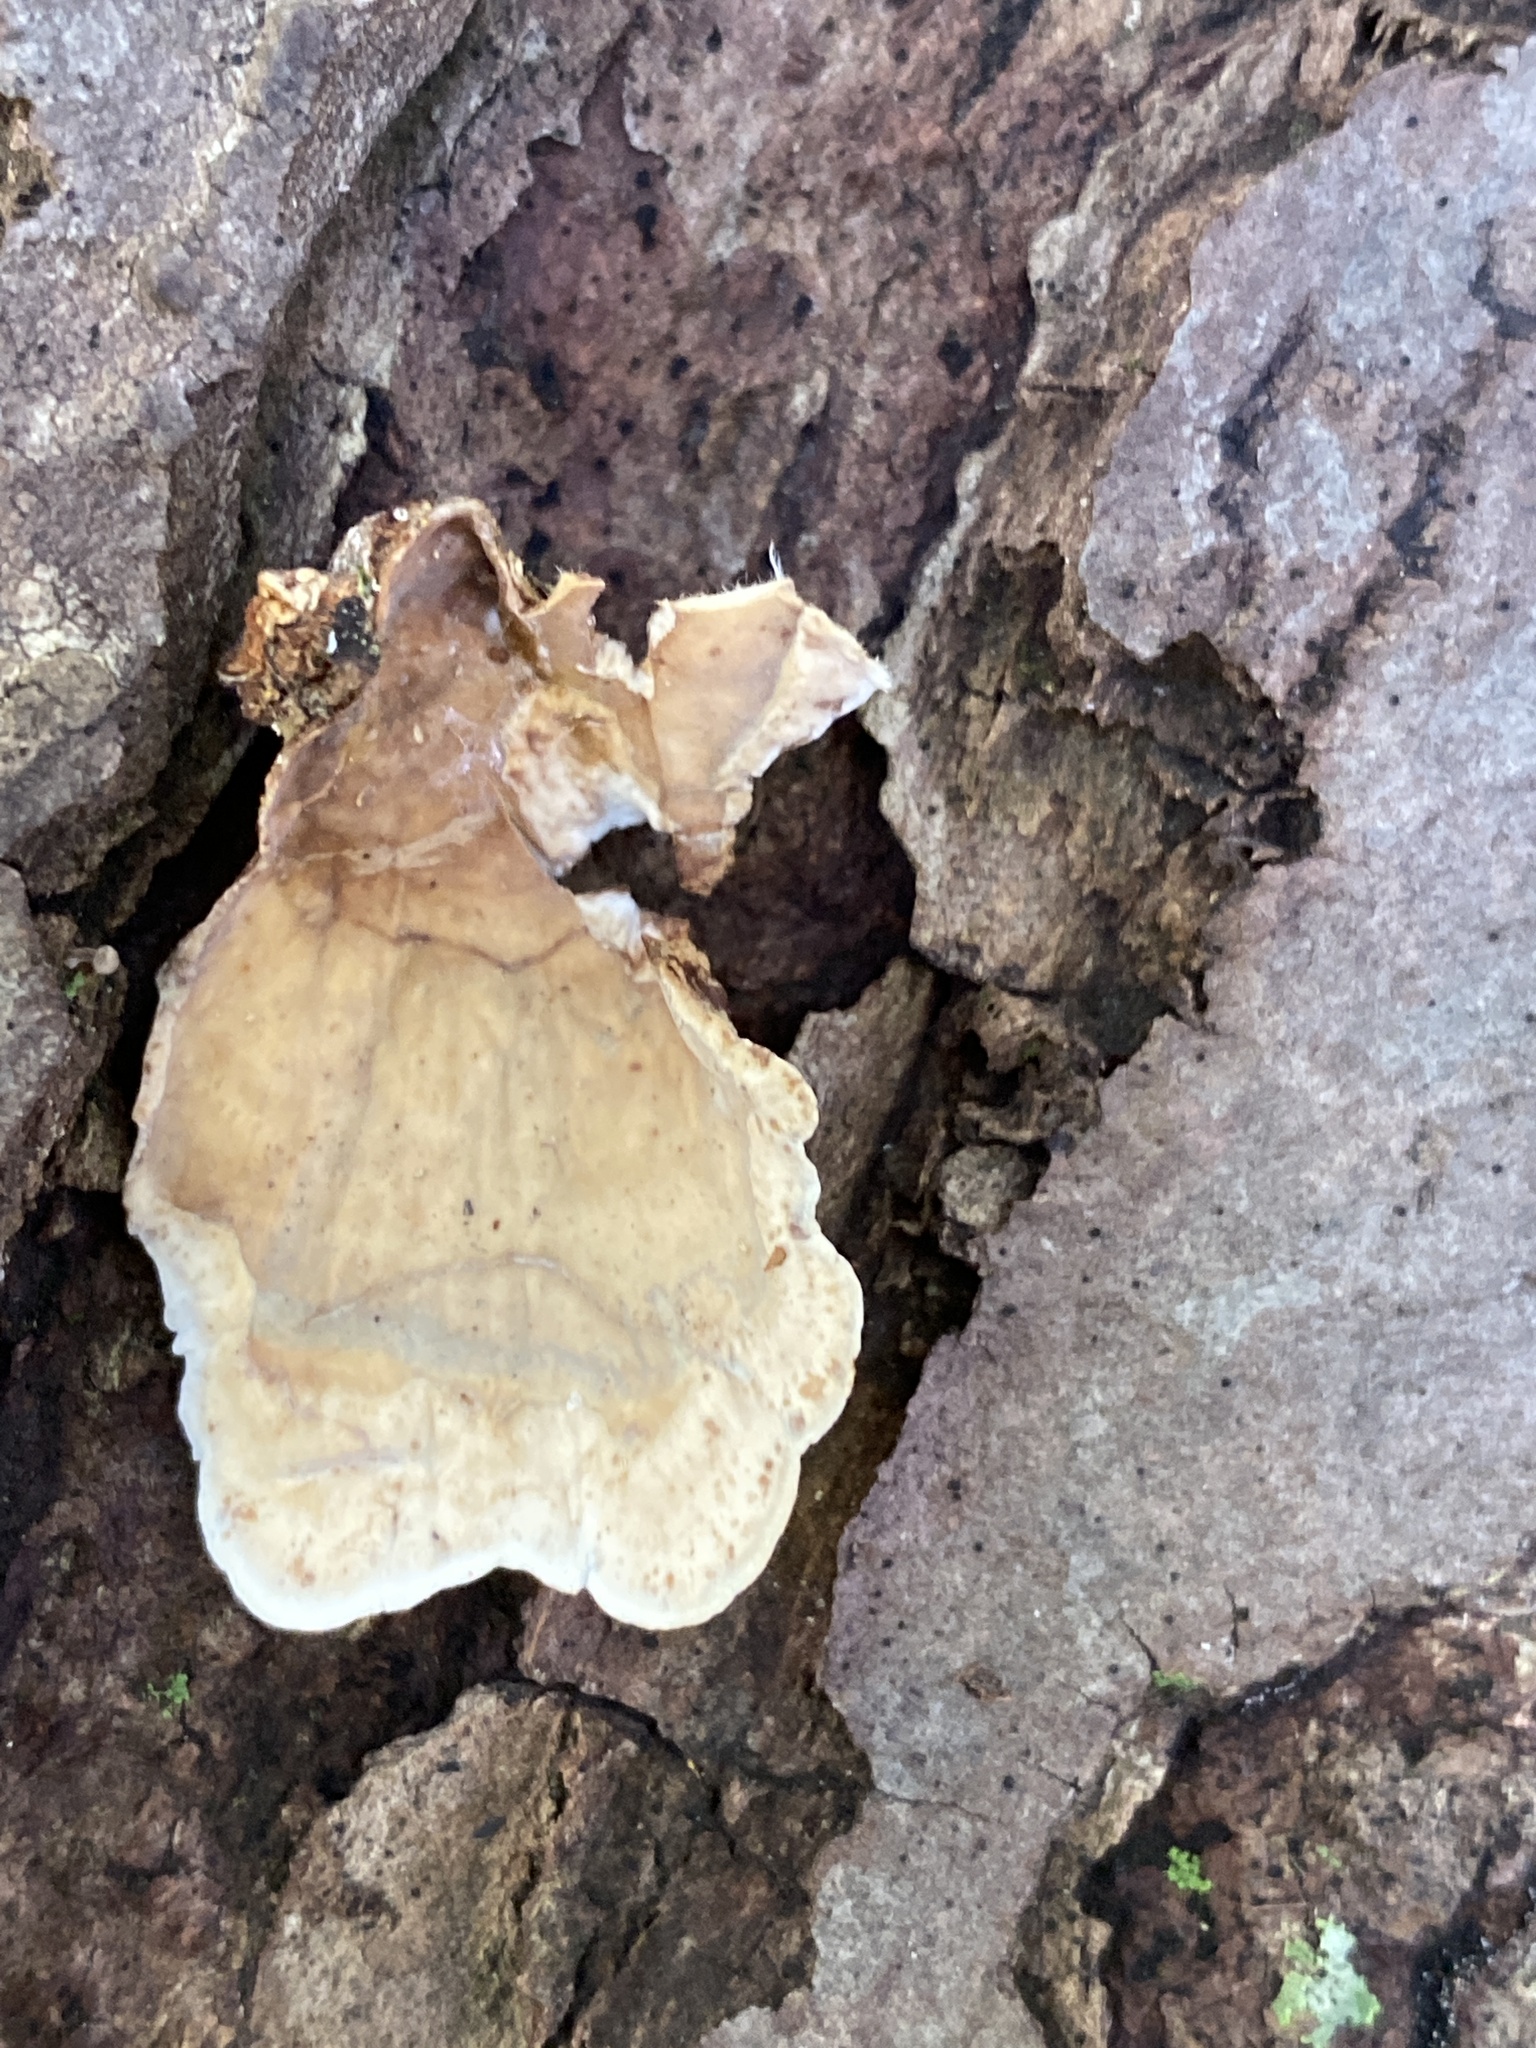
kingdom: Fungi
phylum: Basidiomycota
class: Agaricomycetes
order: Russulales
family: Stereaceae
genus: Stereum
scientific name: Stereum lobatum
